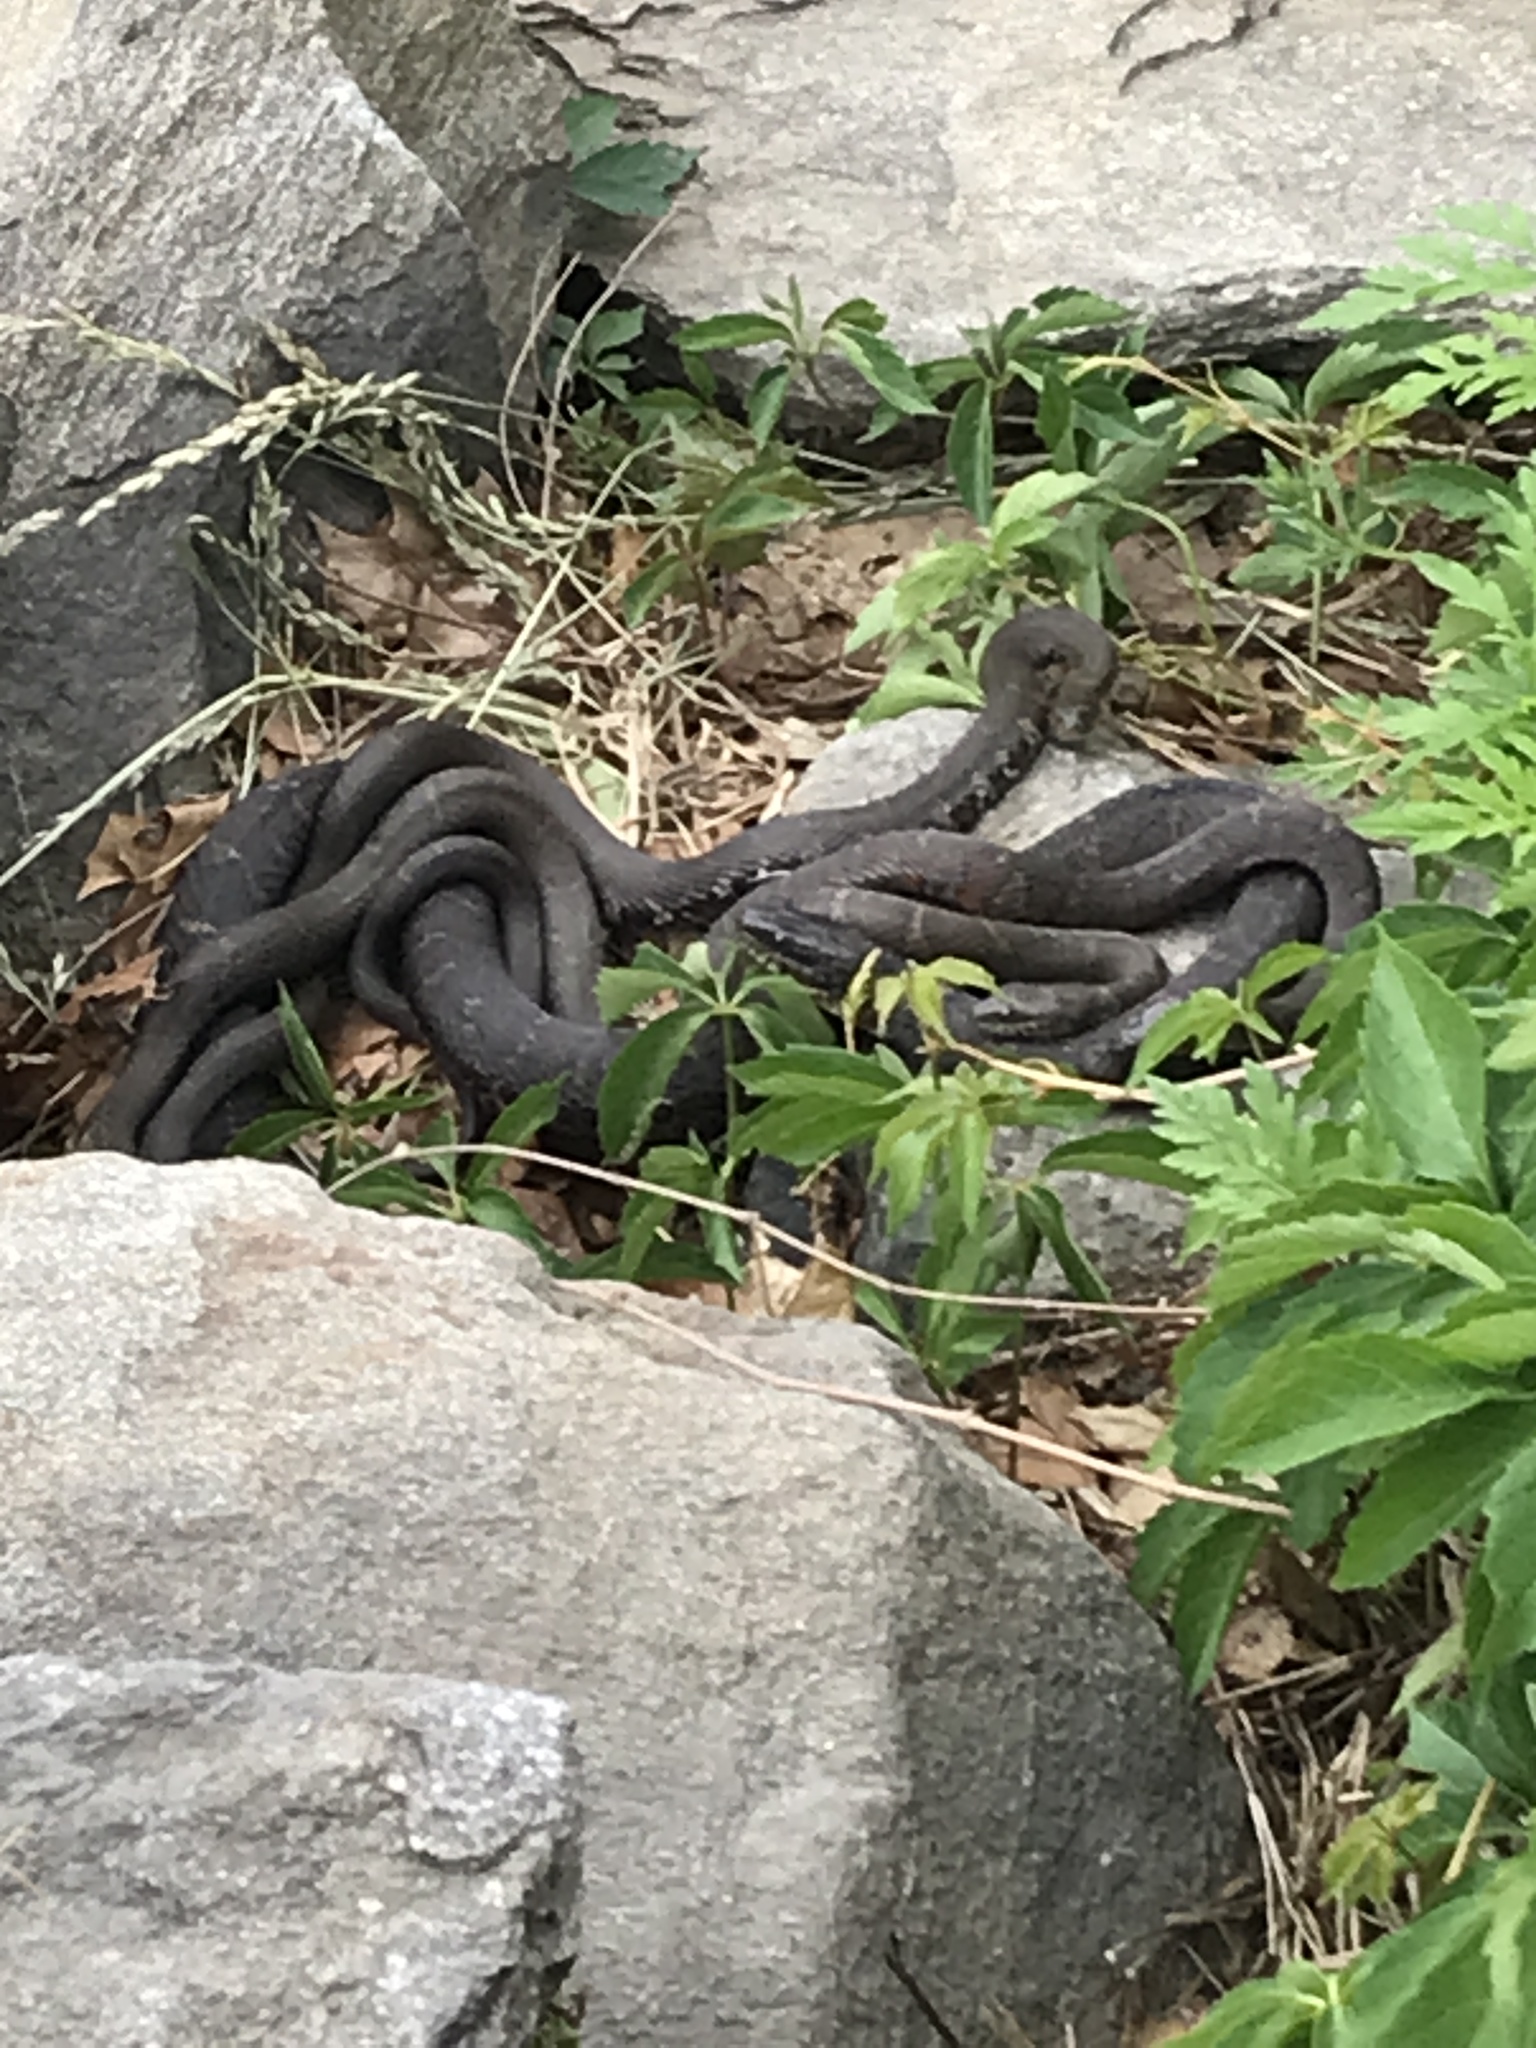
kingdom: Animalia
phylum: Chordata
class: Squamata
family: Colubridae
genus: Nerodia
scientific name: Nerodia sipedon
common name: Northern water snake
